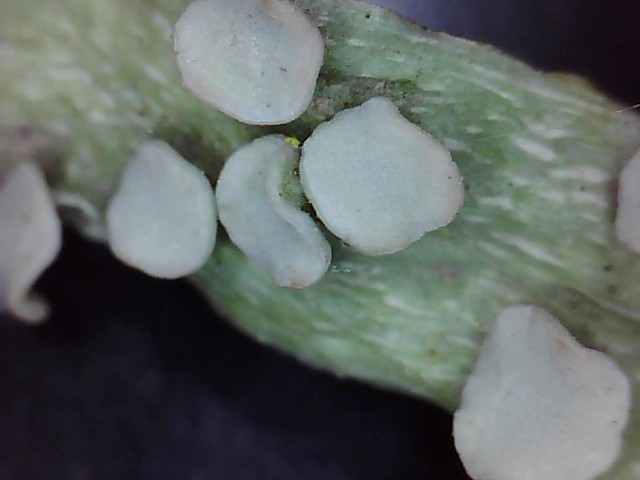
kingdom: Fungi
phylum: Ascomycota
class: Lecanoromycetes
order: Lecanorales
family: Ramalinaceae
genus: Ramalina
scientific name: Ramalina celastri
